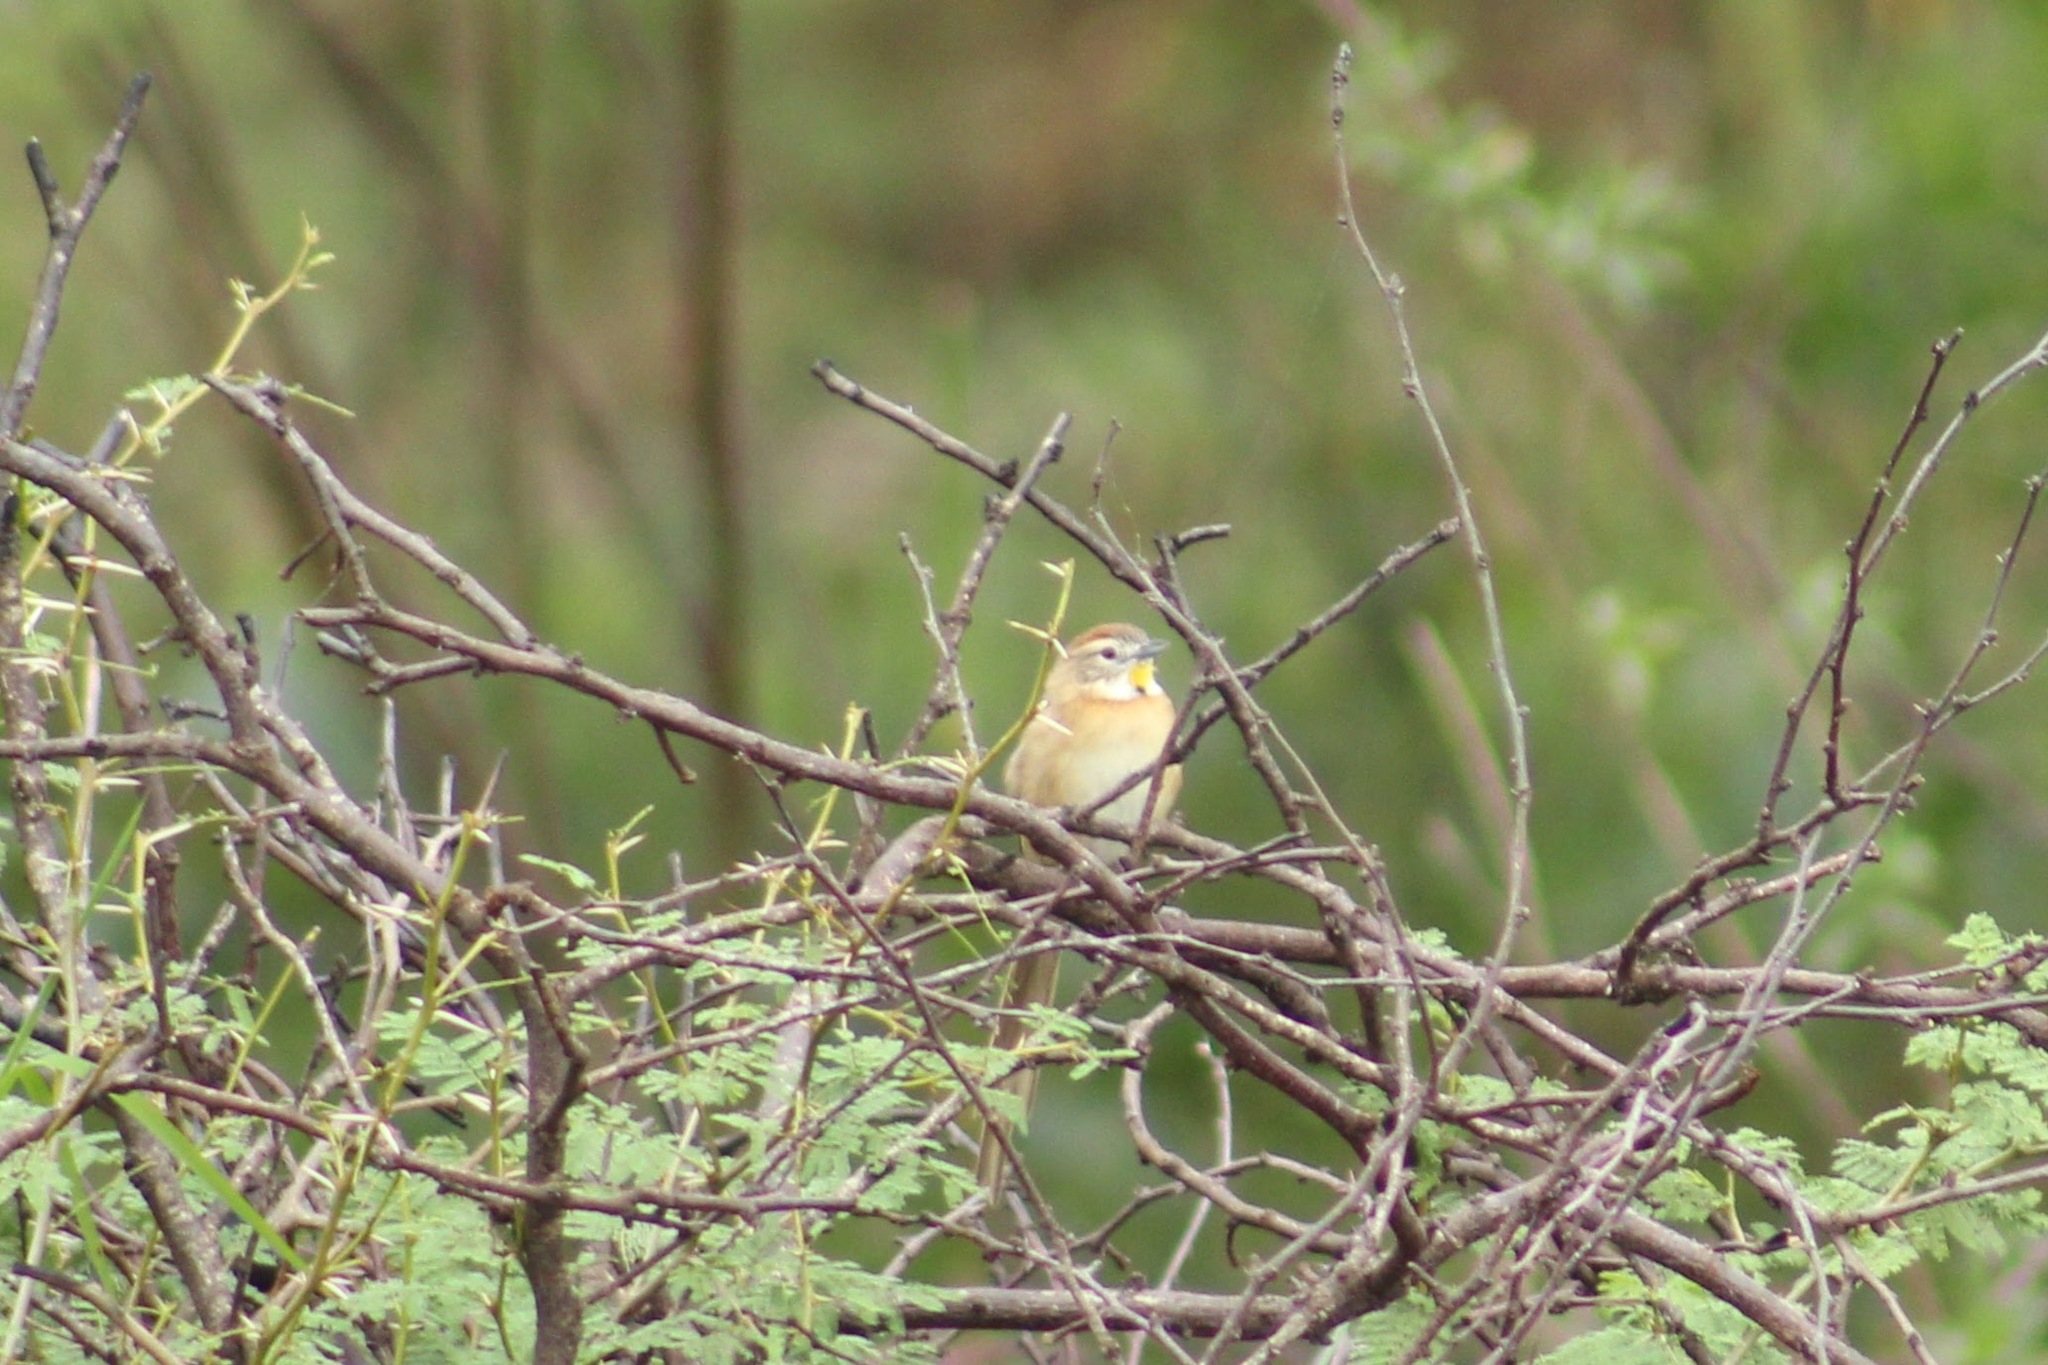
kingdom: Animalia
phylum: Chordata
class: Aves
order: Passeriformes
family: Furnariidae
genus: Schoeniophylax
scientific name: Schoeniophylax phryganophilus
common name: Chotoy spinetail
